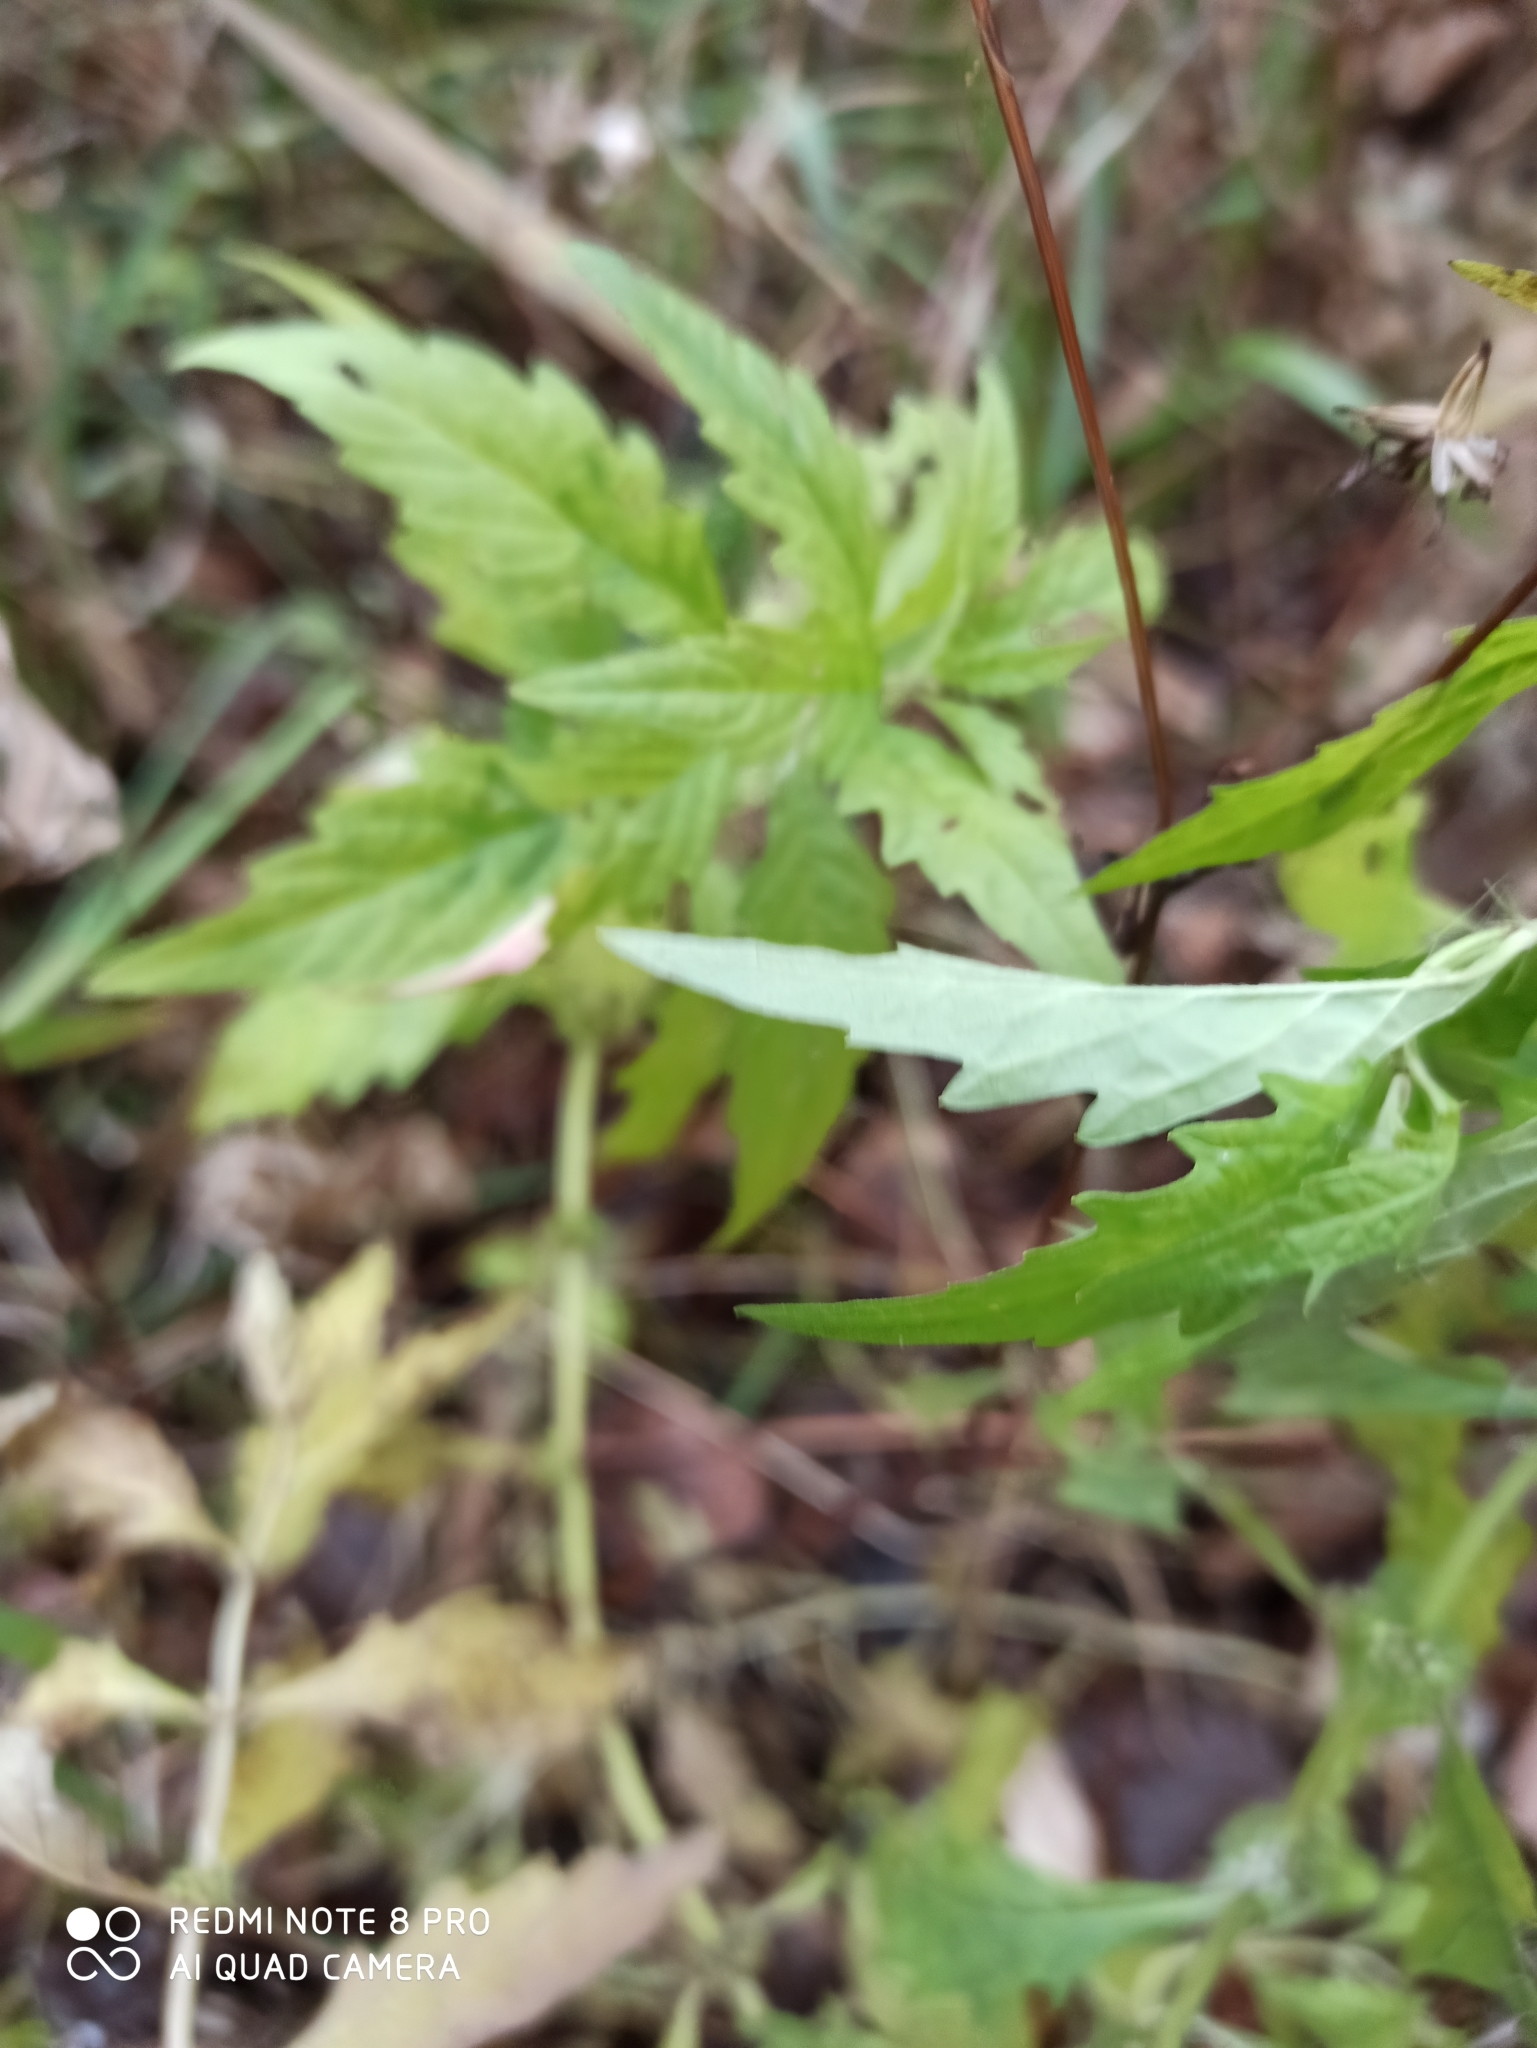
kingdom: Plantae
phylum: Tracheophyta
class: Magnoliopsida
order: Lamiales
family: Lamiaceae
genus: Lycopus
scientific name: Lycopus europaeus
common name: European bugleweed
